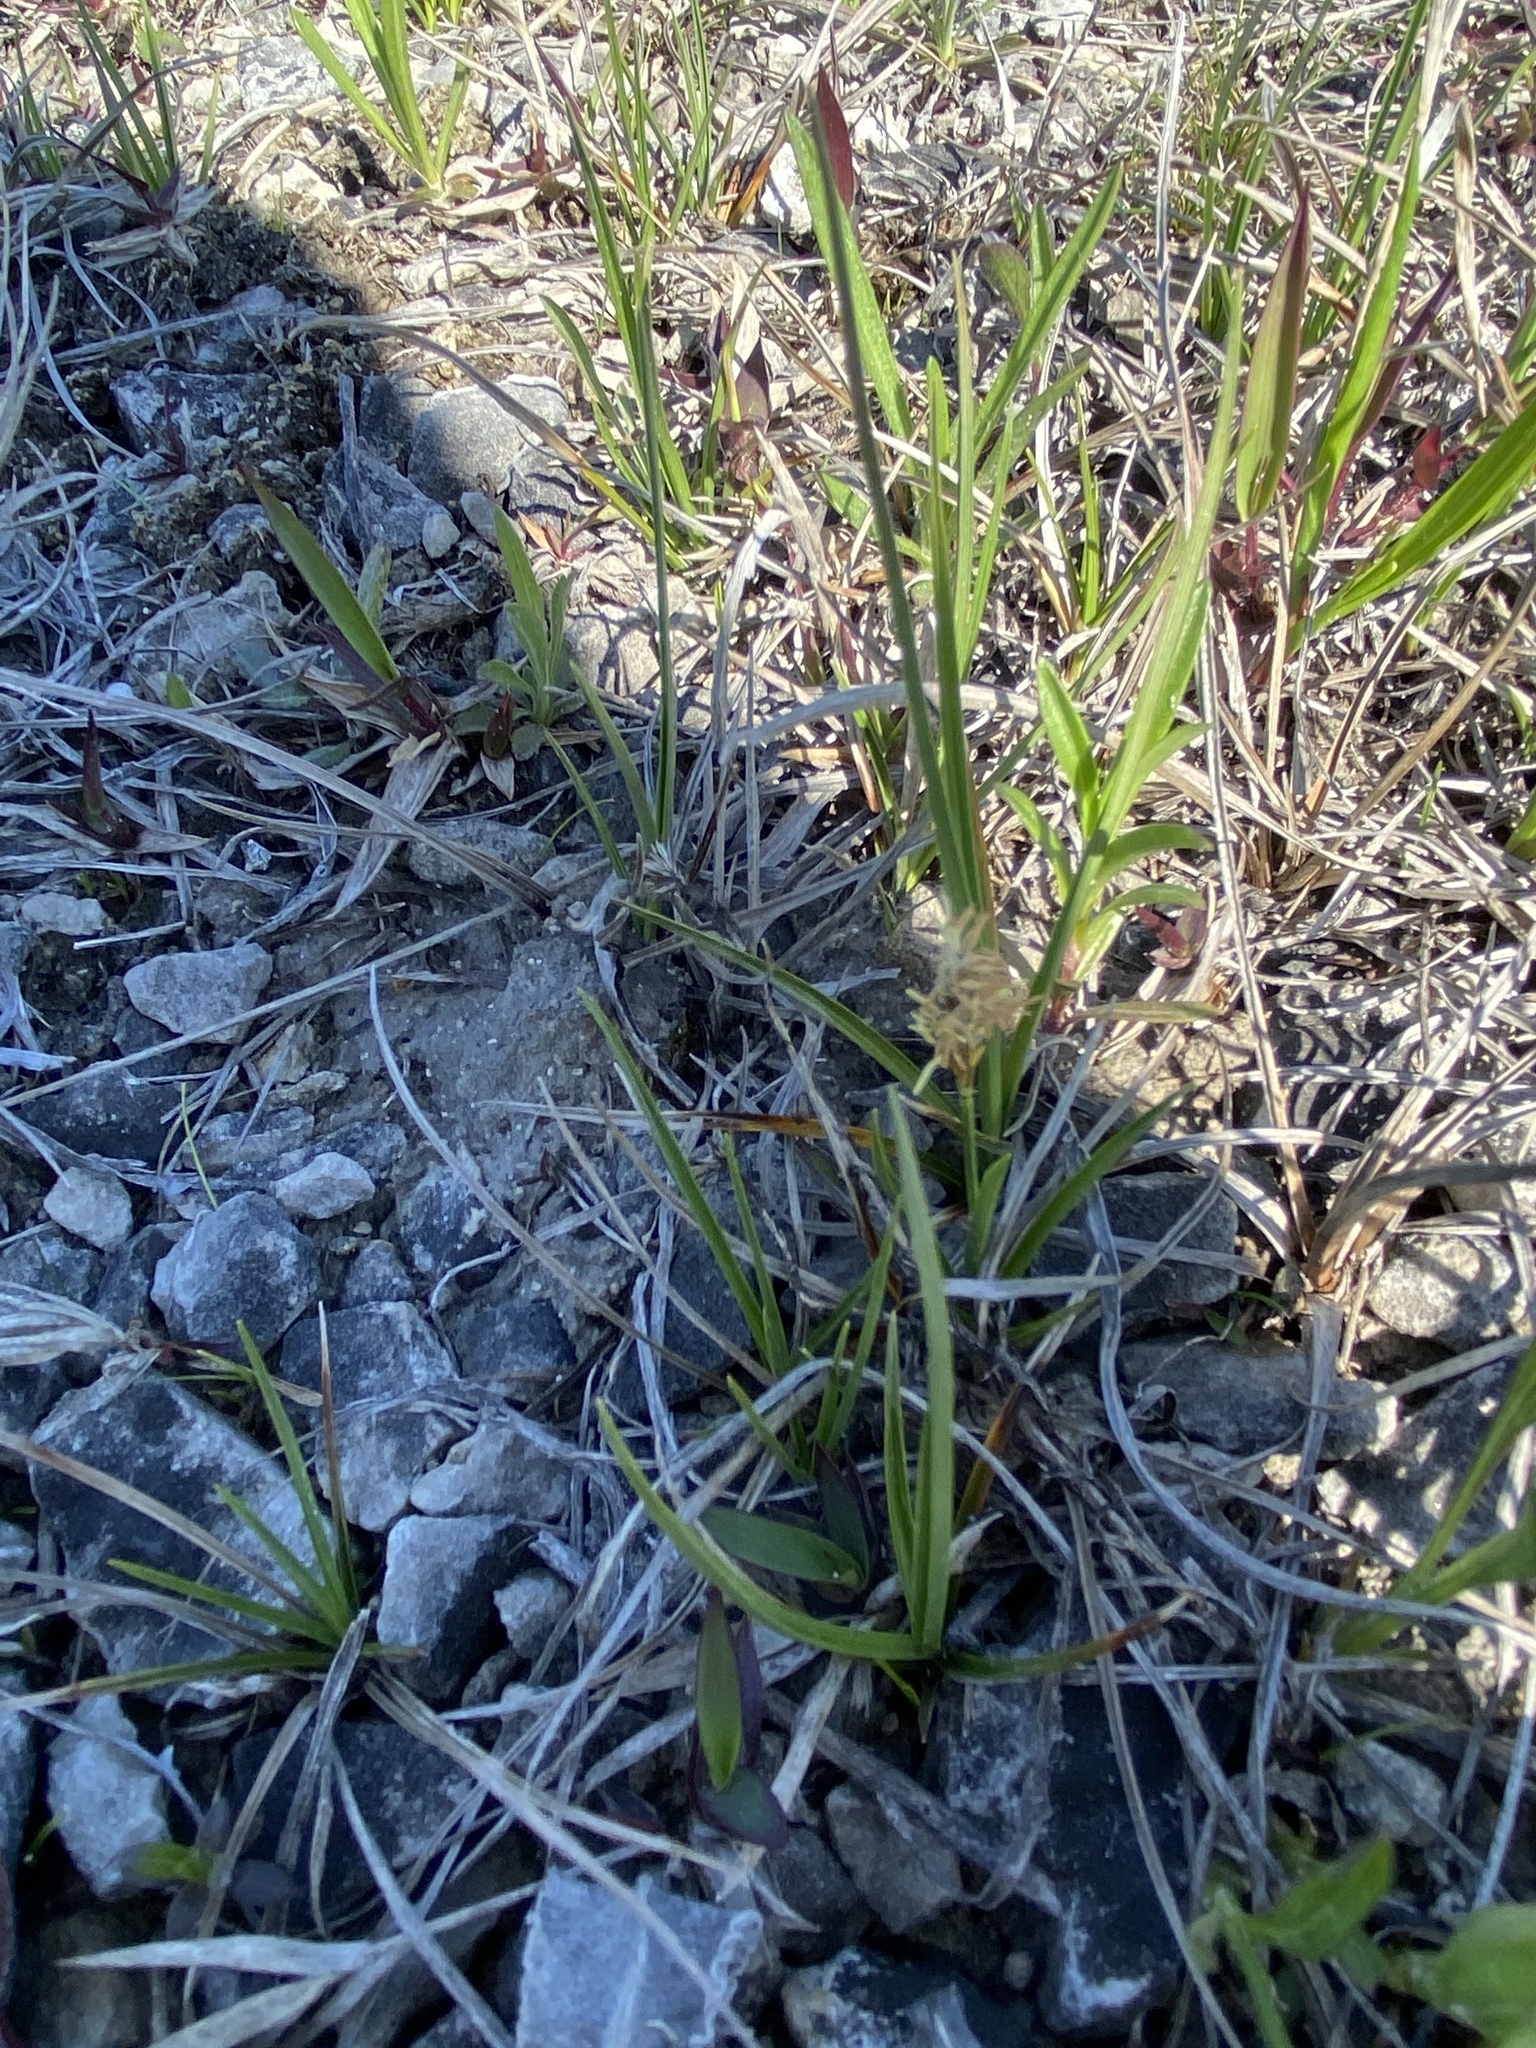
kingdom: Plantae
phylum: Tracheophyta
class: Liliopsida
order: Poales
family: Cyperaceae
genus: Carex
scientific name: Carex pensylvanica
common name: Common oak sedge
